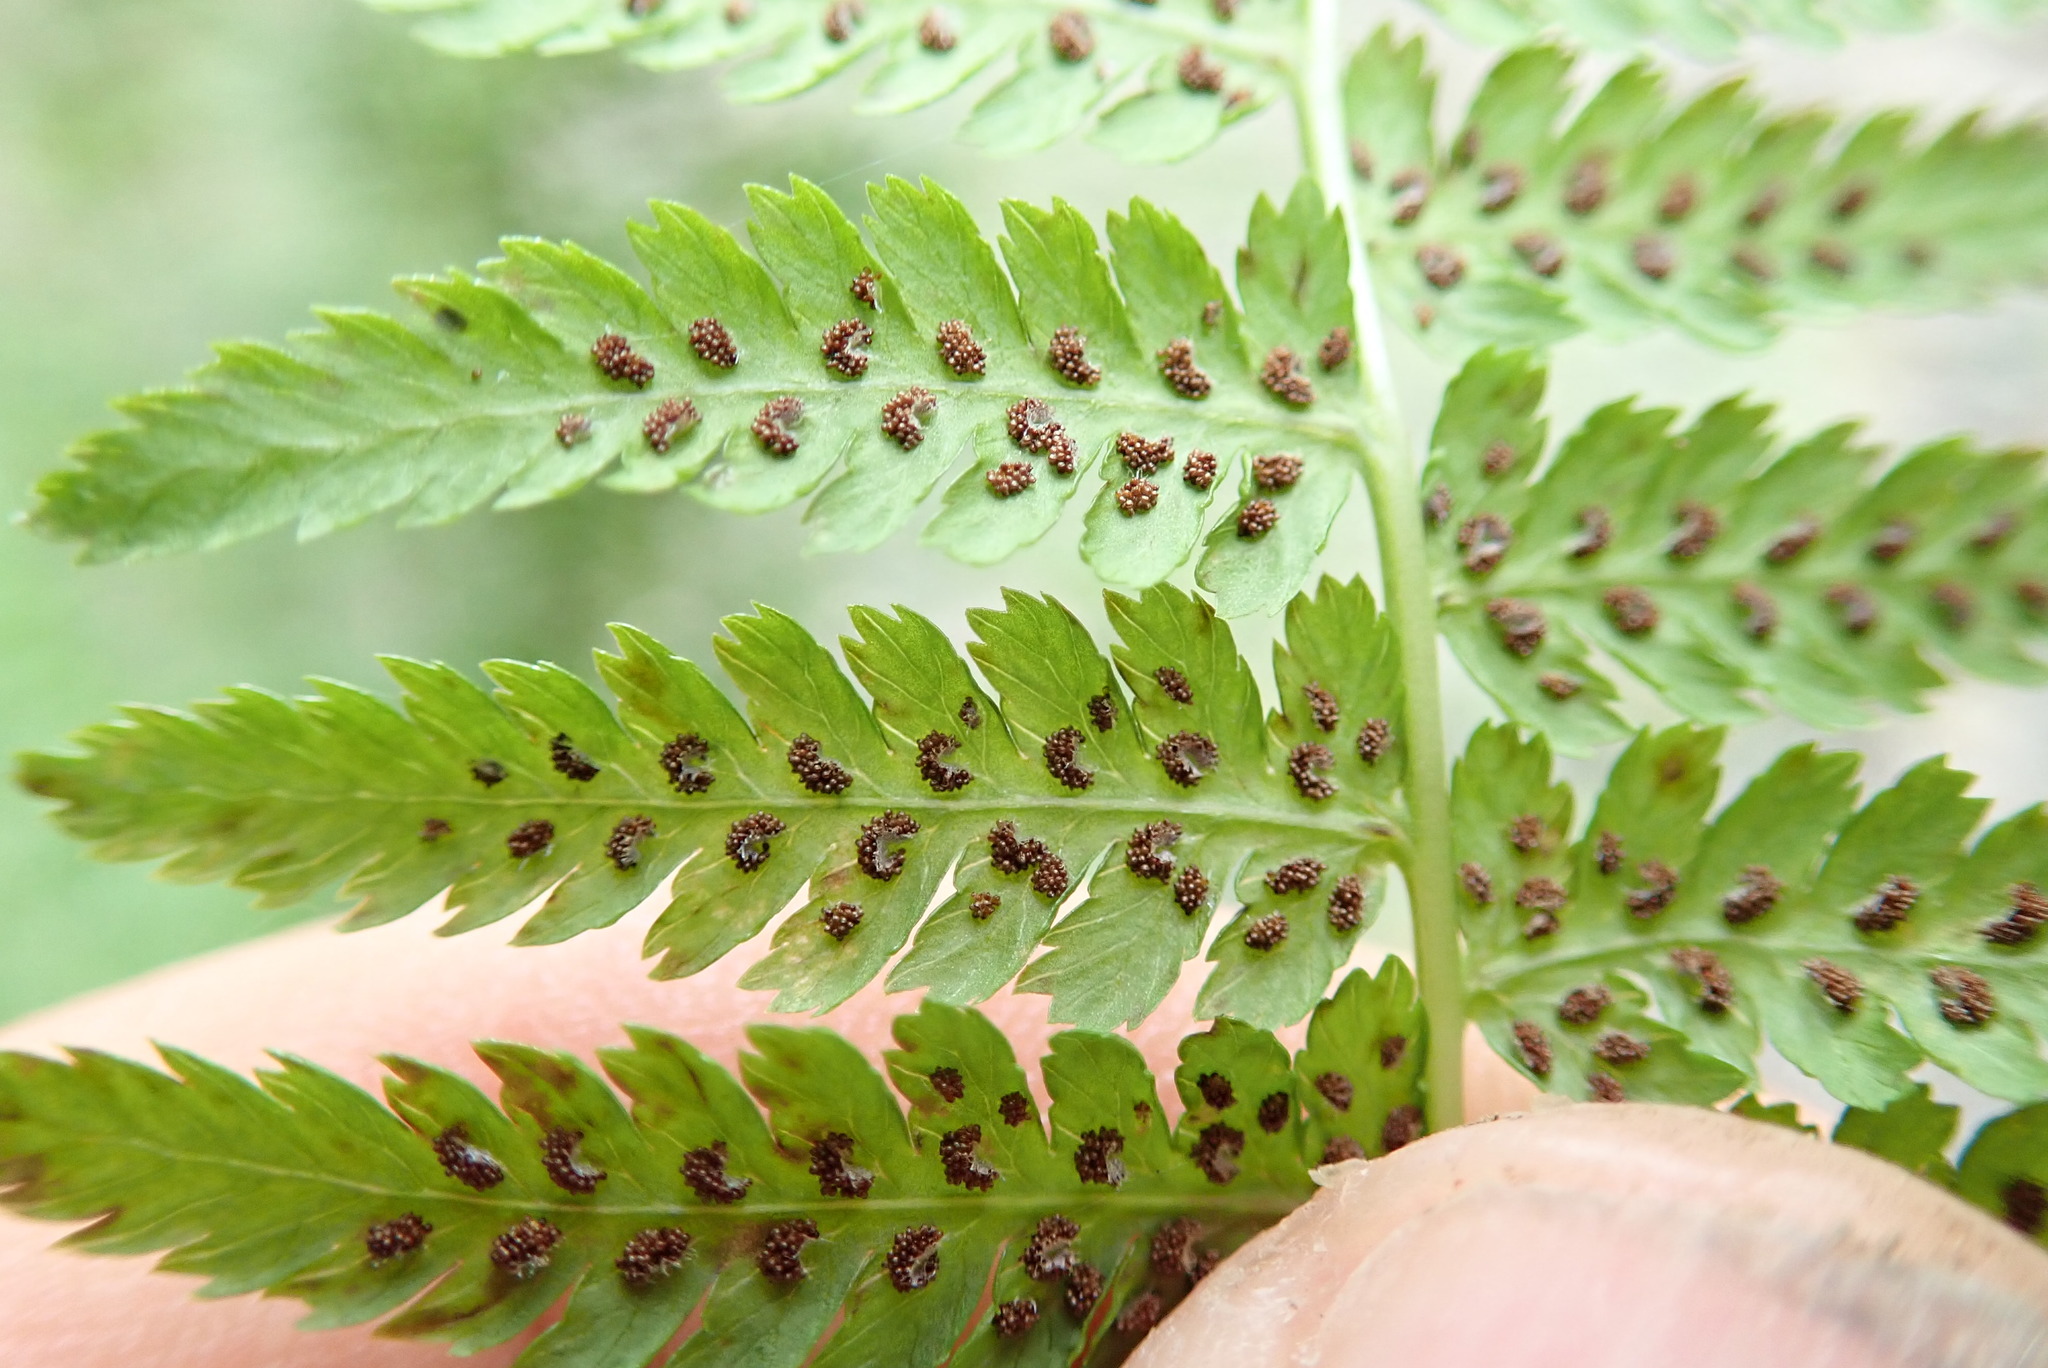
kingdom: Plantae
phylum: Tracheophyta
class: Polypodiopsida
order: Polypodiales
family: Athyriaceae
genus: Athyrium
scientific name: Athyrium filix-femina
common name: Lady fern
